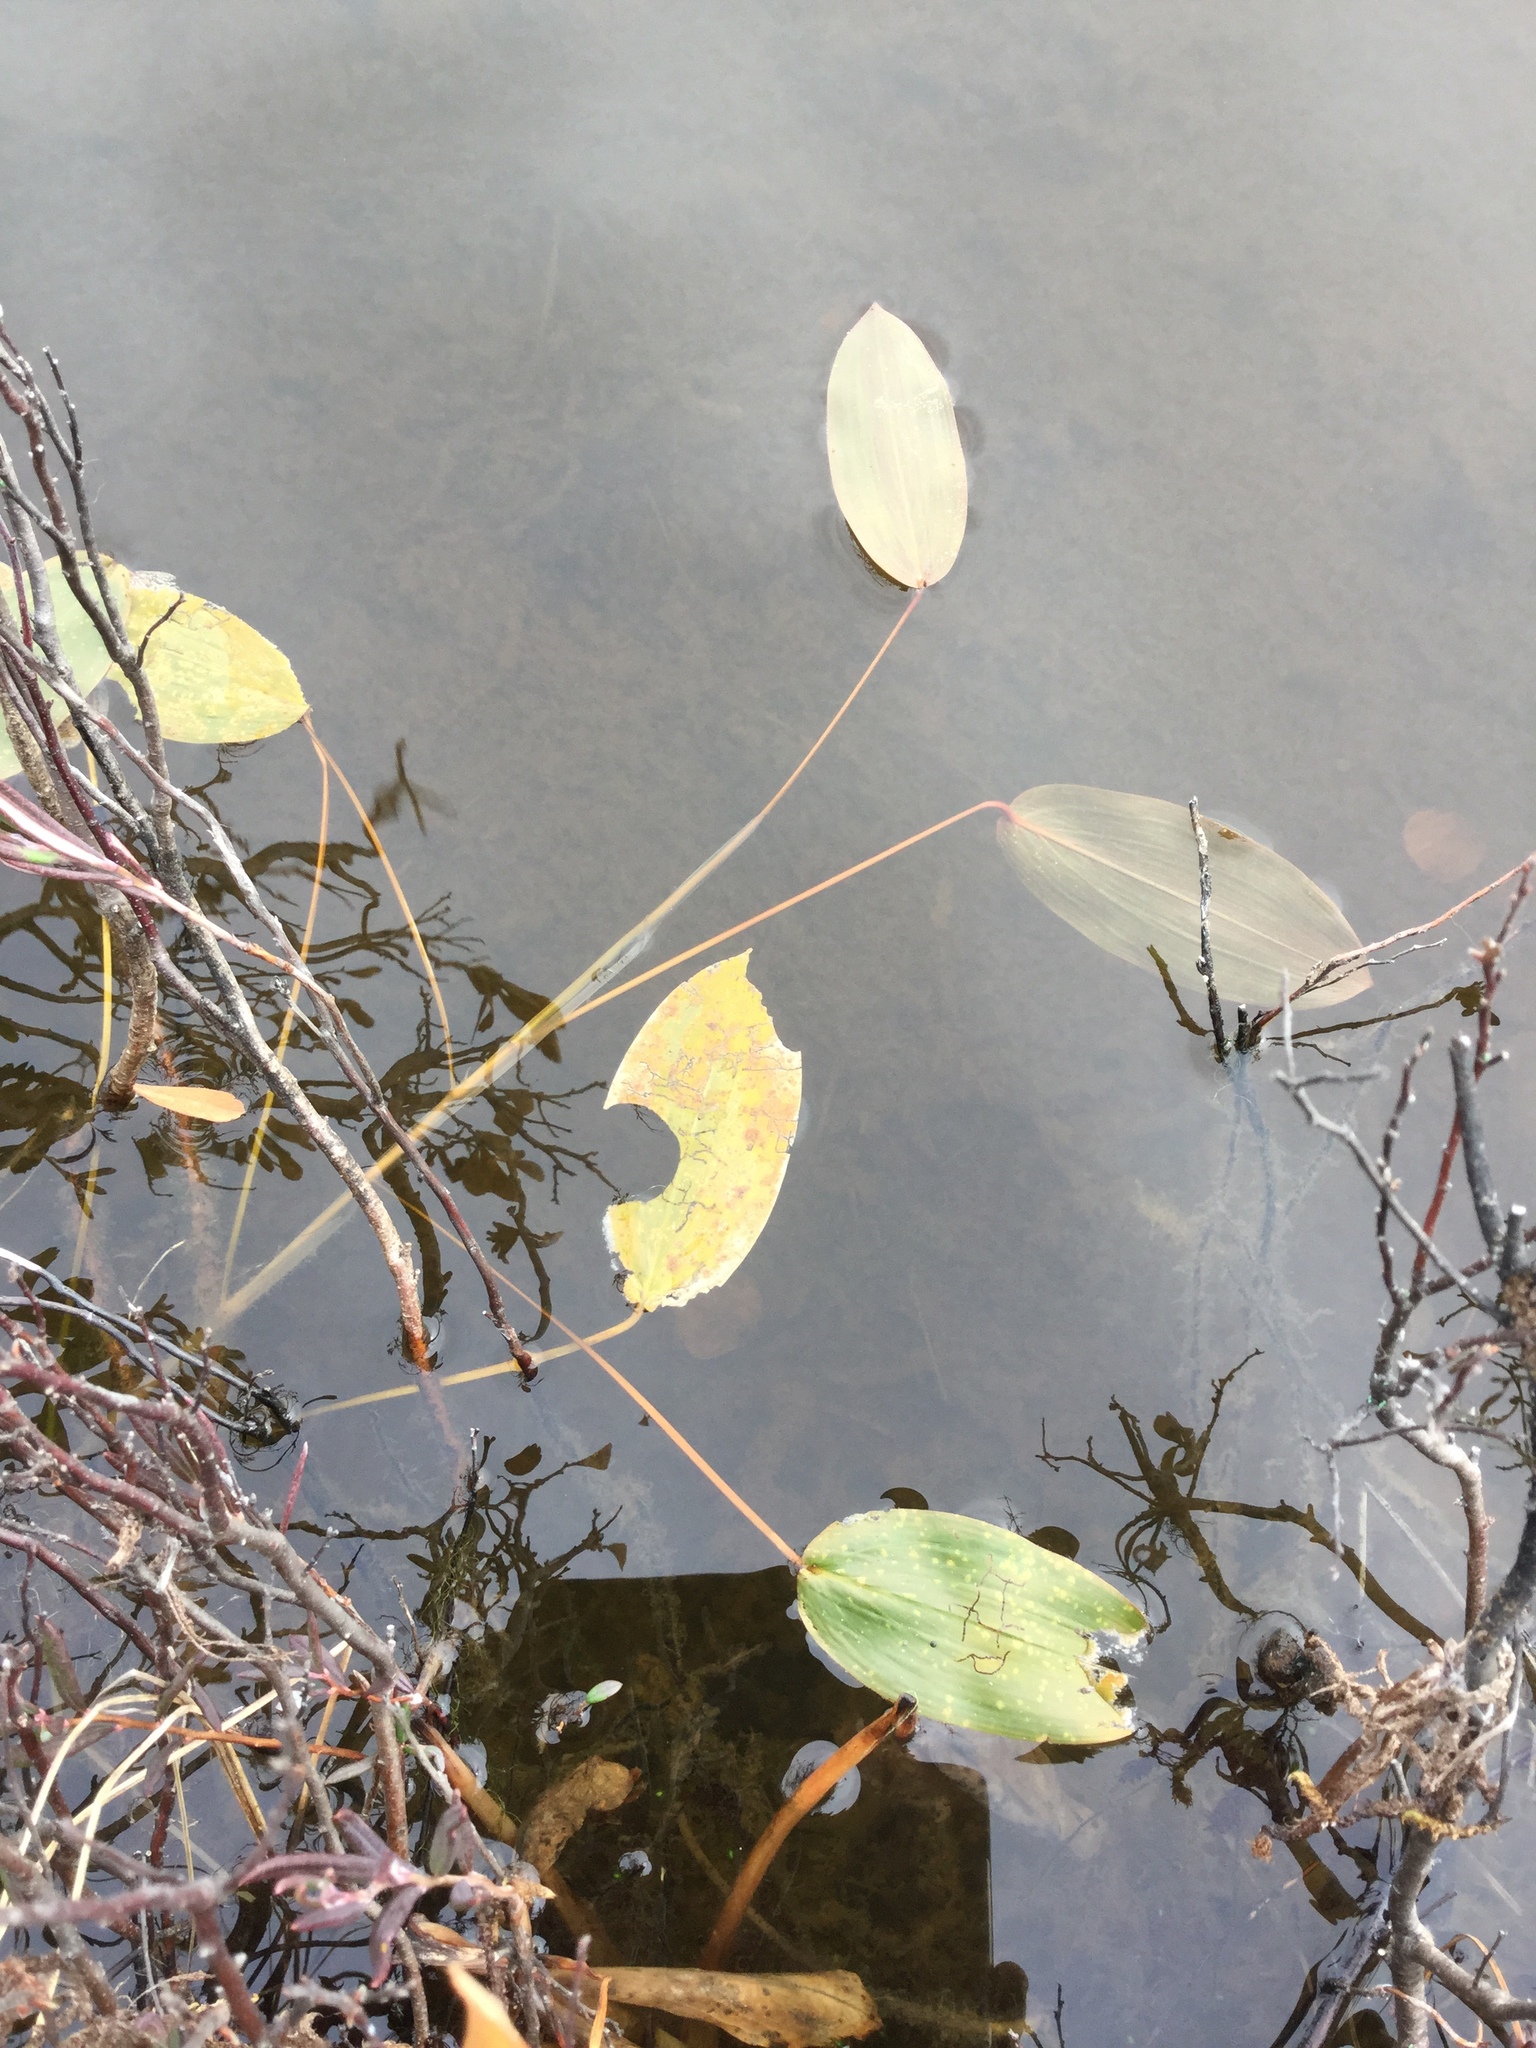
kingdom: Plantae
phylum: Tracheophyta
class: Liliopsida
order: Alismatales
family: Potamogetonaceae
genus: Potamogeton
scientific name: Potamogeton natans
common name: Broad-leaved pondweed
